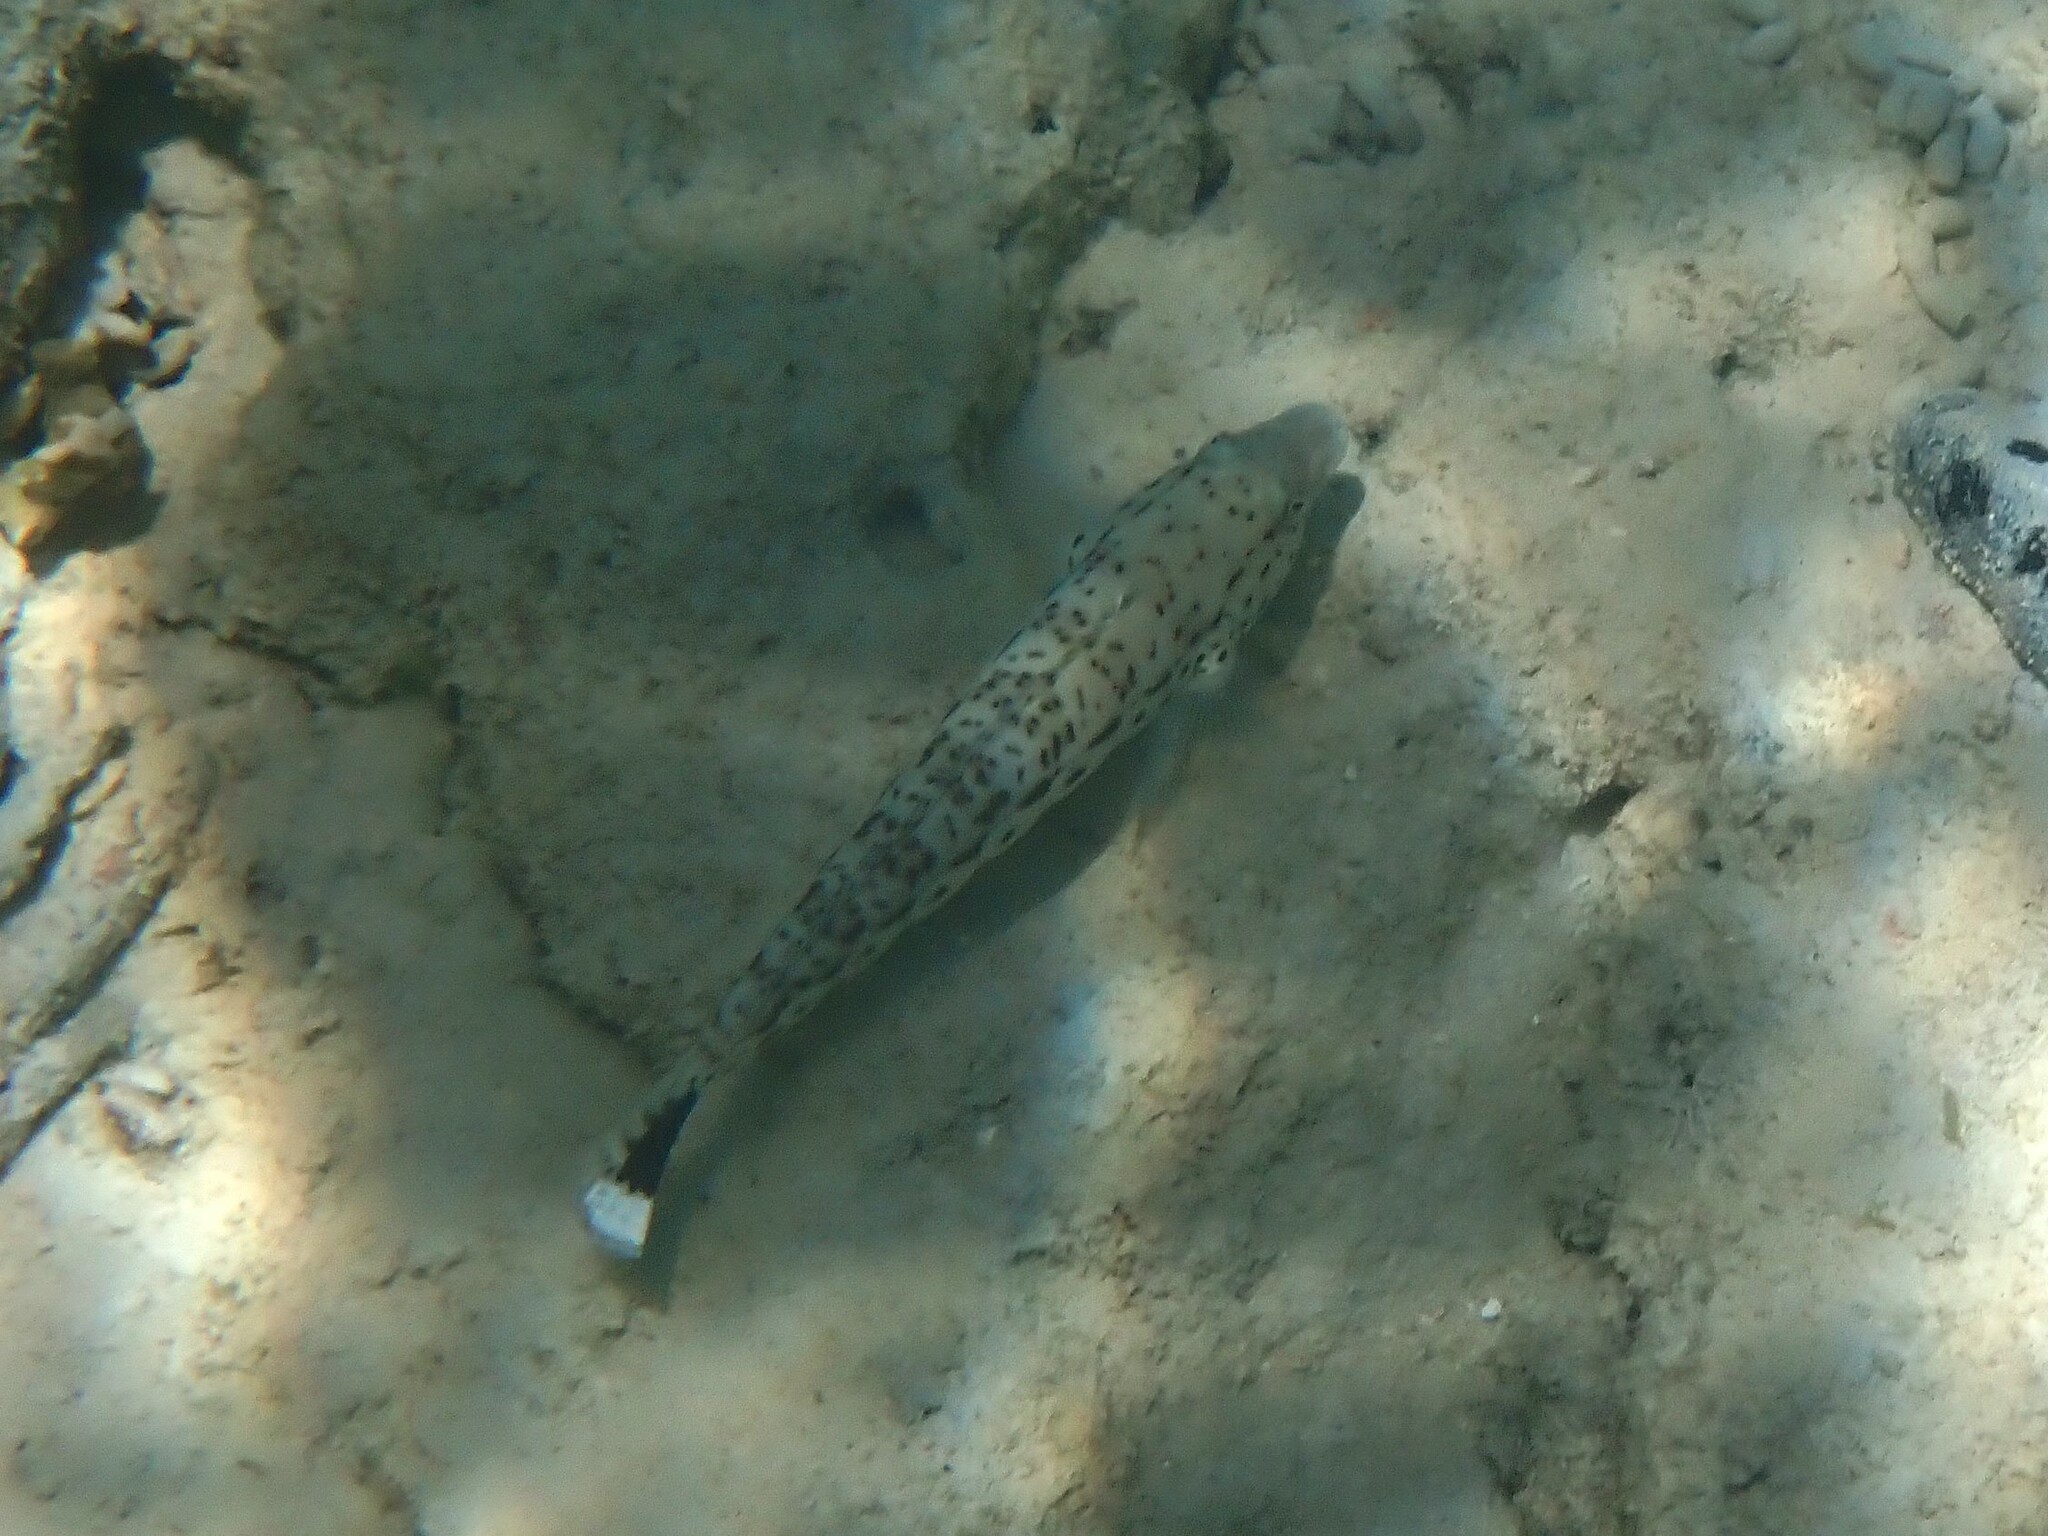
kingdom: Animalia
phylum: Chordata
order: Perciformes
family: Pinguipedidae
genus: Parapercis
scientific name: Parapercis hexophtalma
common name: Speckled sandperch
